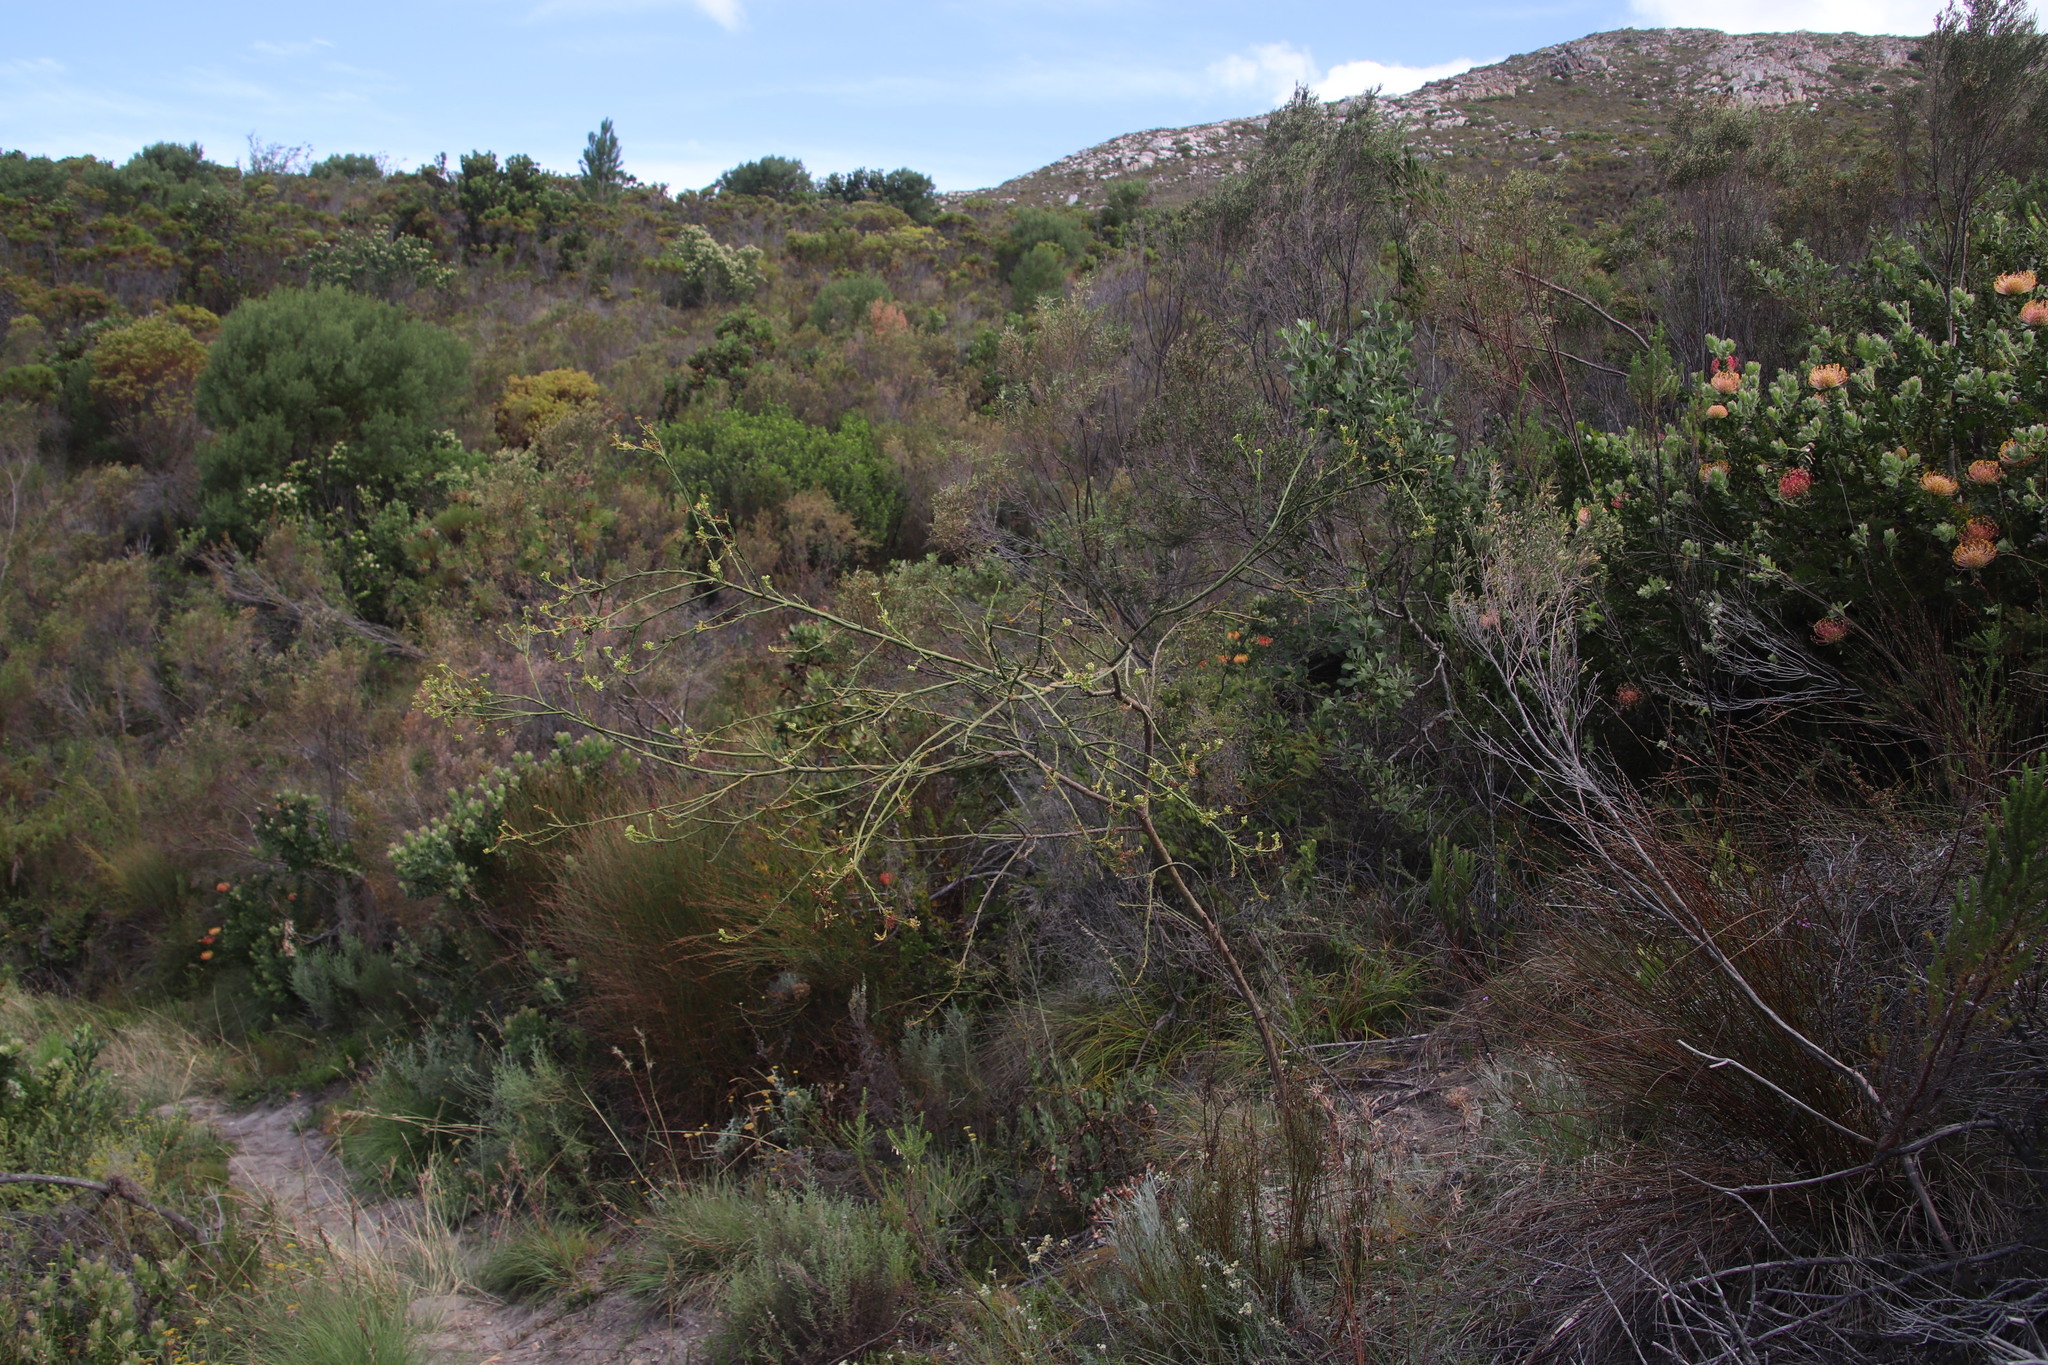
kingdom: Plantae
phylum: Tracheophyta
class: Magnoliopsida
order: Santalales
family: Thesiaceae
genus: Thesium
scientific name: Thesium strictum
